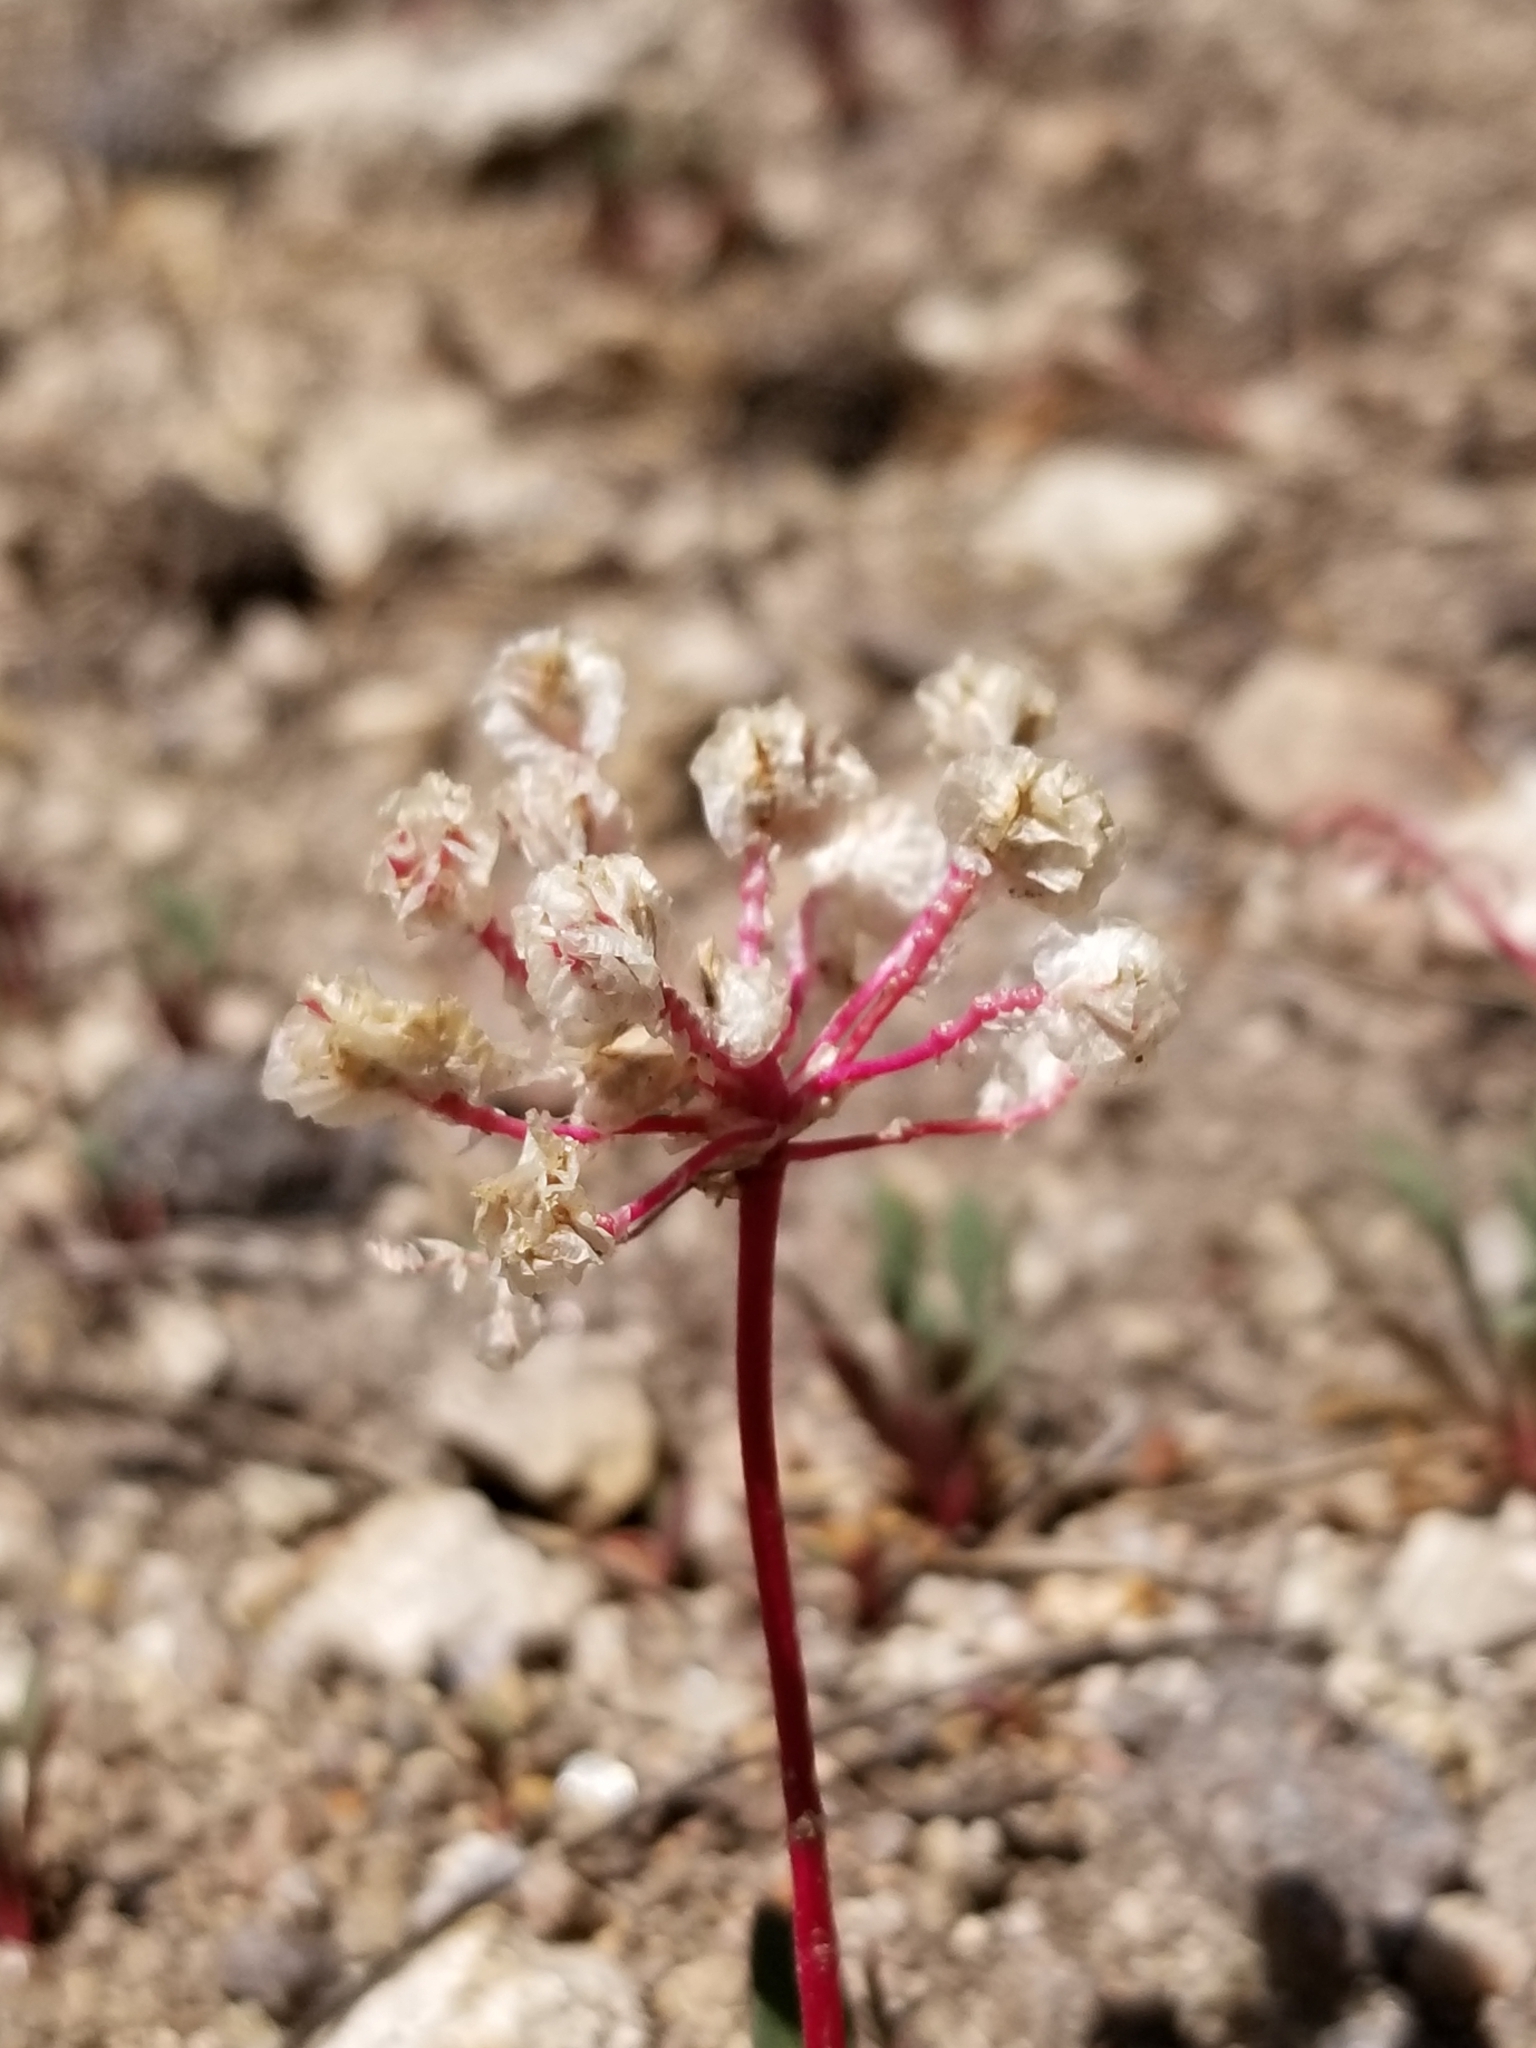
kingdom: Plantae
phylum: Tracheophyta
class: Magnoliopsida
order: Caryophyllales
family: Montiaceae
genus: Calyptridium
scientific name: Calyptridium monospermum
